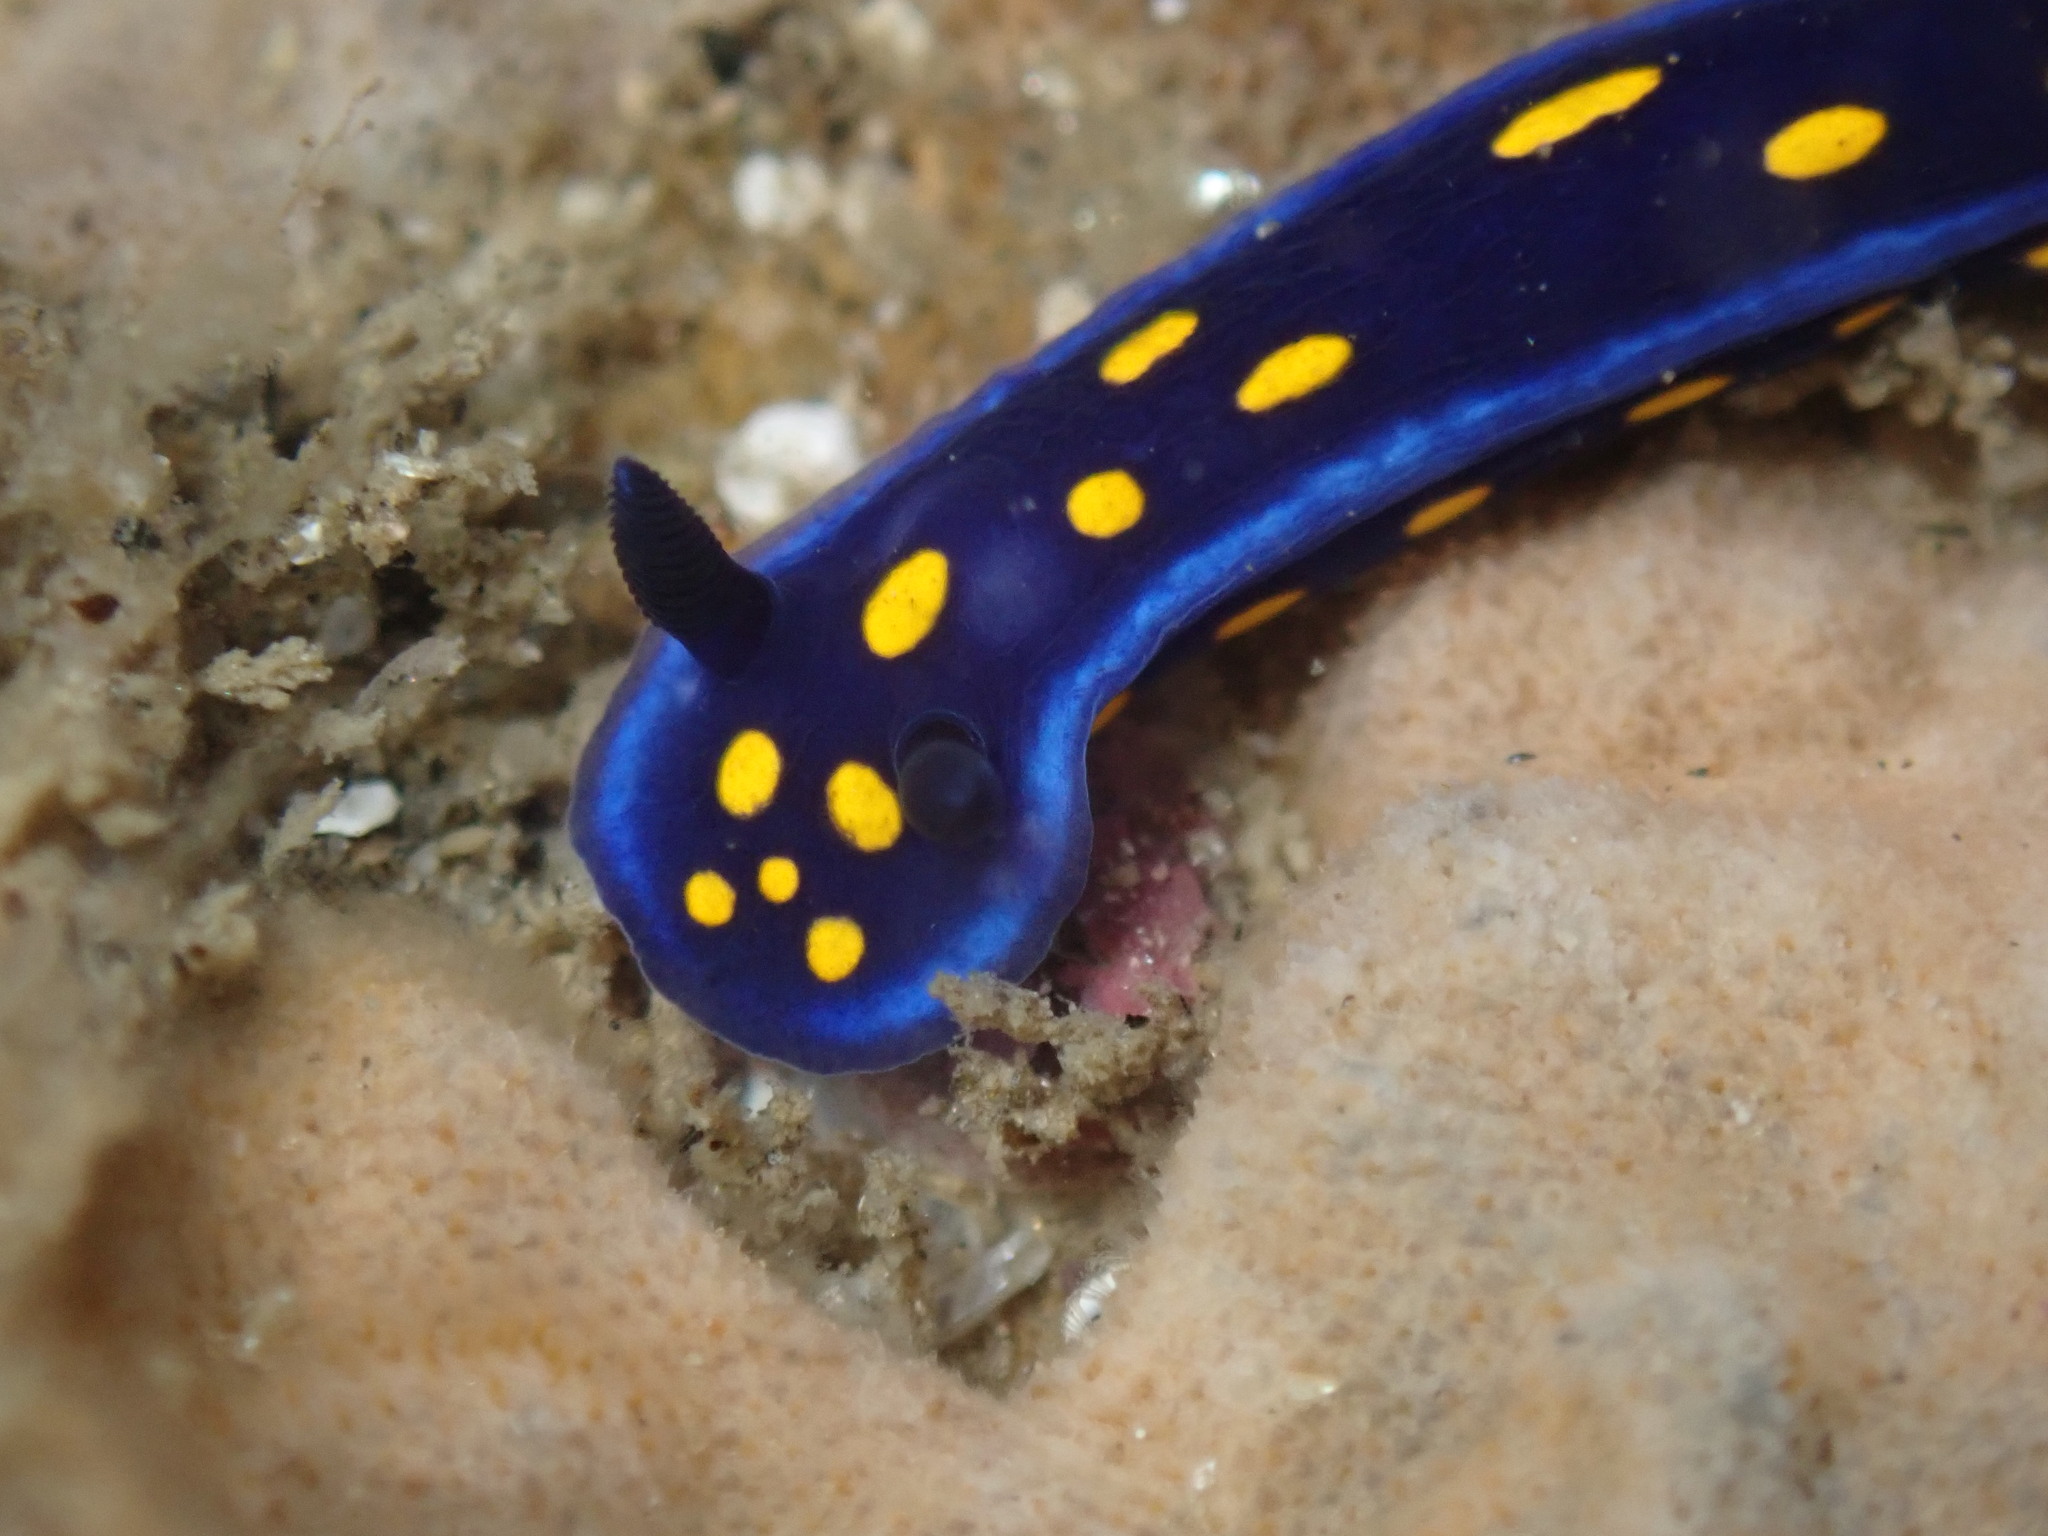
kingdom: Animalia
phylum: Mollusca
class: Gastropoda
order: Nudibranchia
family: Chromodorididae
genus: Felimare
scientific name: Felimare californiensis
